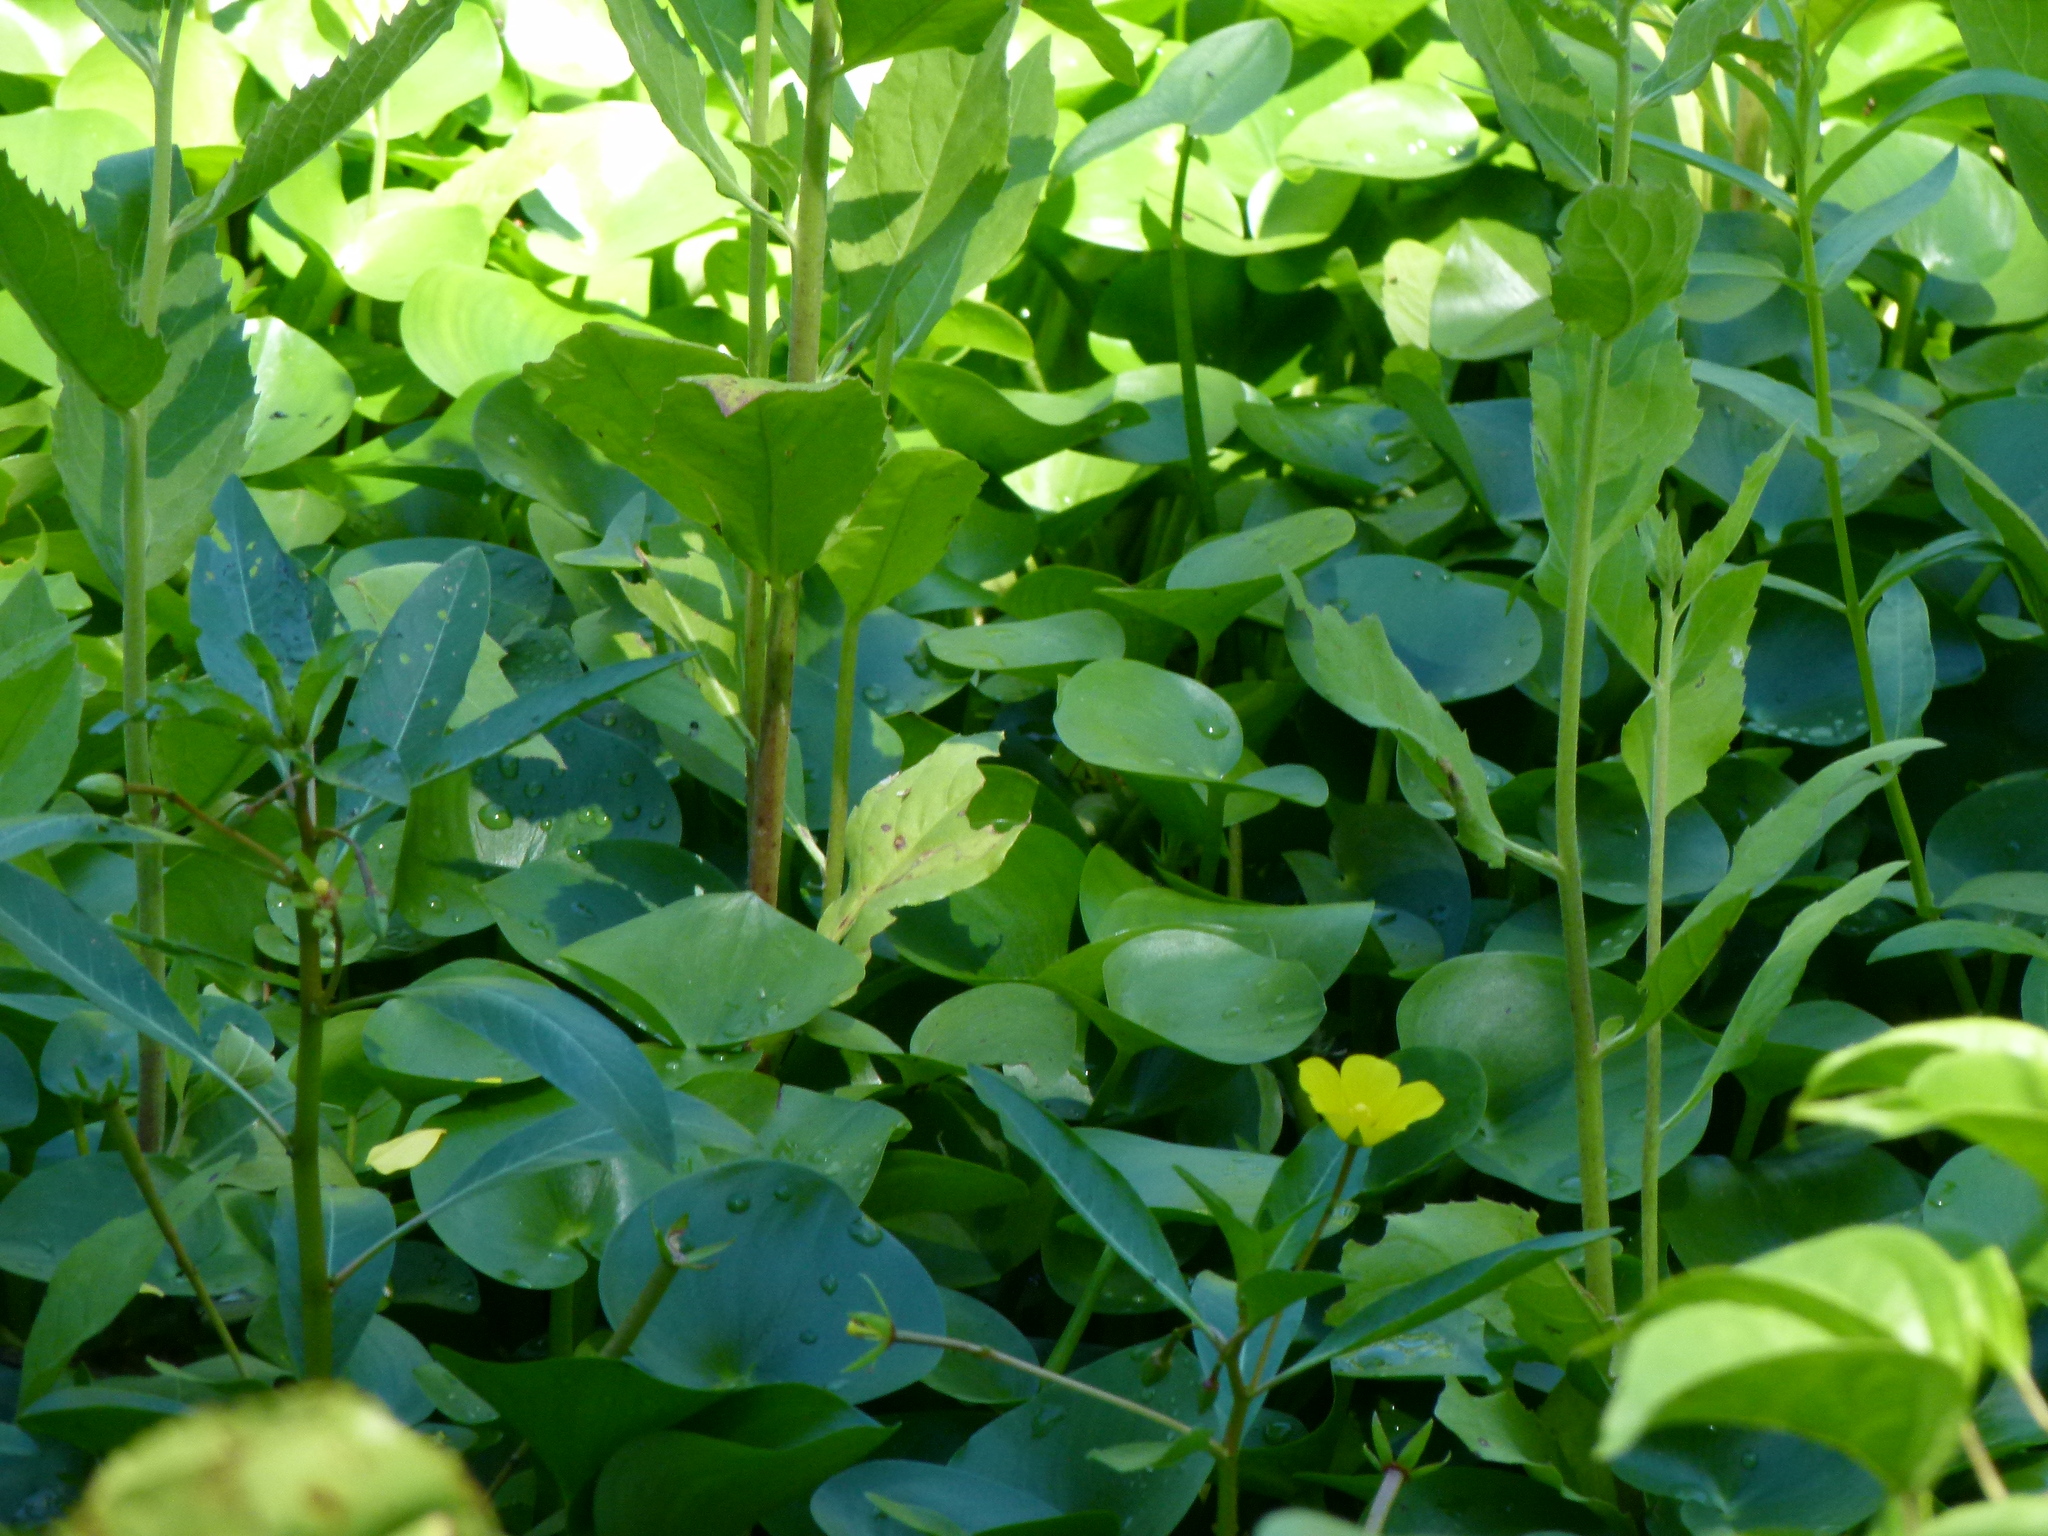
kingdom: Plantae
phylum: Tracheophyta
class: Liliopsida
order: Commelinales
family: Pontederiaceae
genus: Heteranthera
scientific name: Heteranthera reniformis
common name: Kidneyleaf mudplantain
